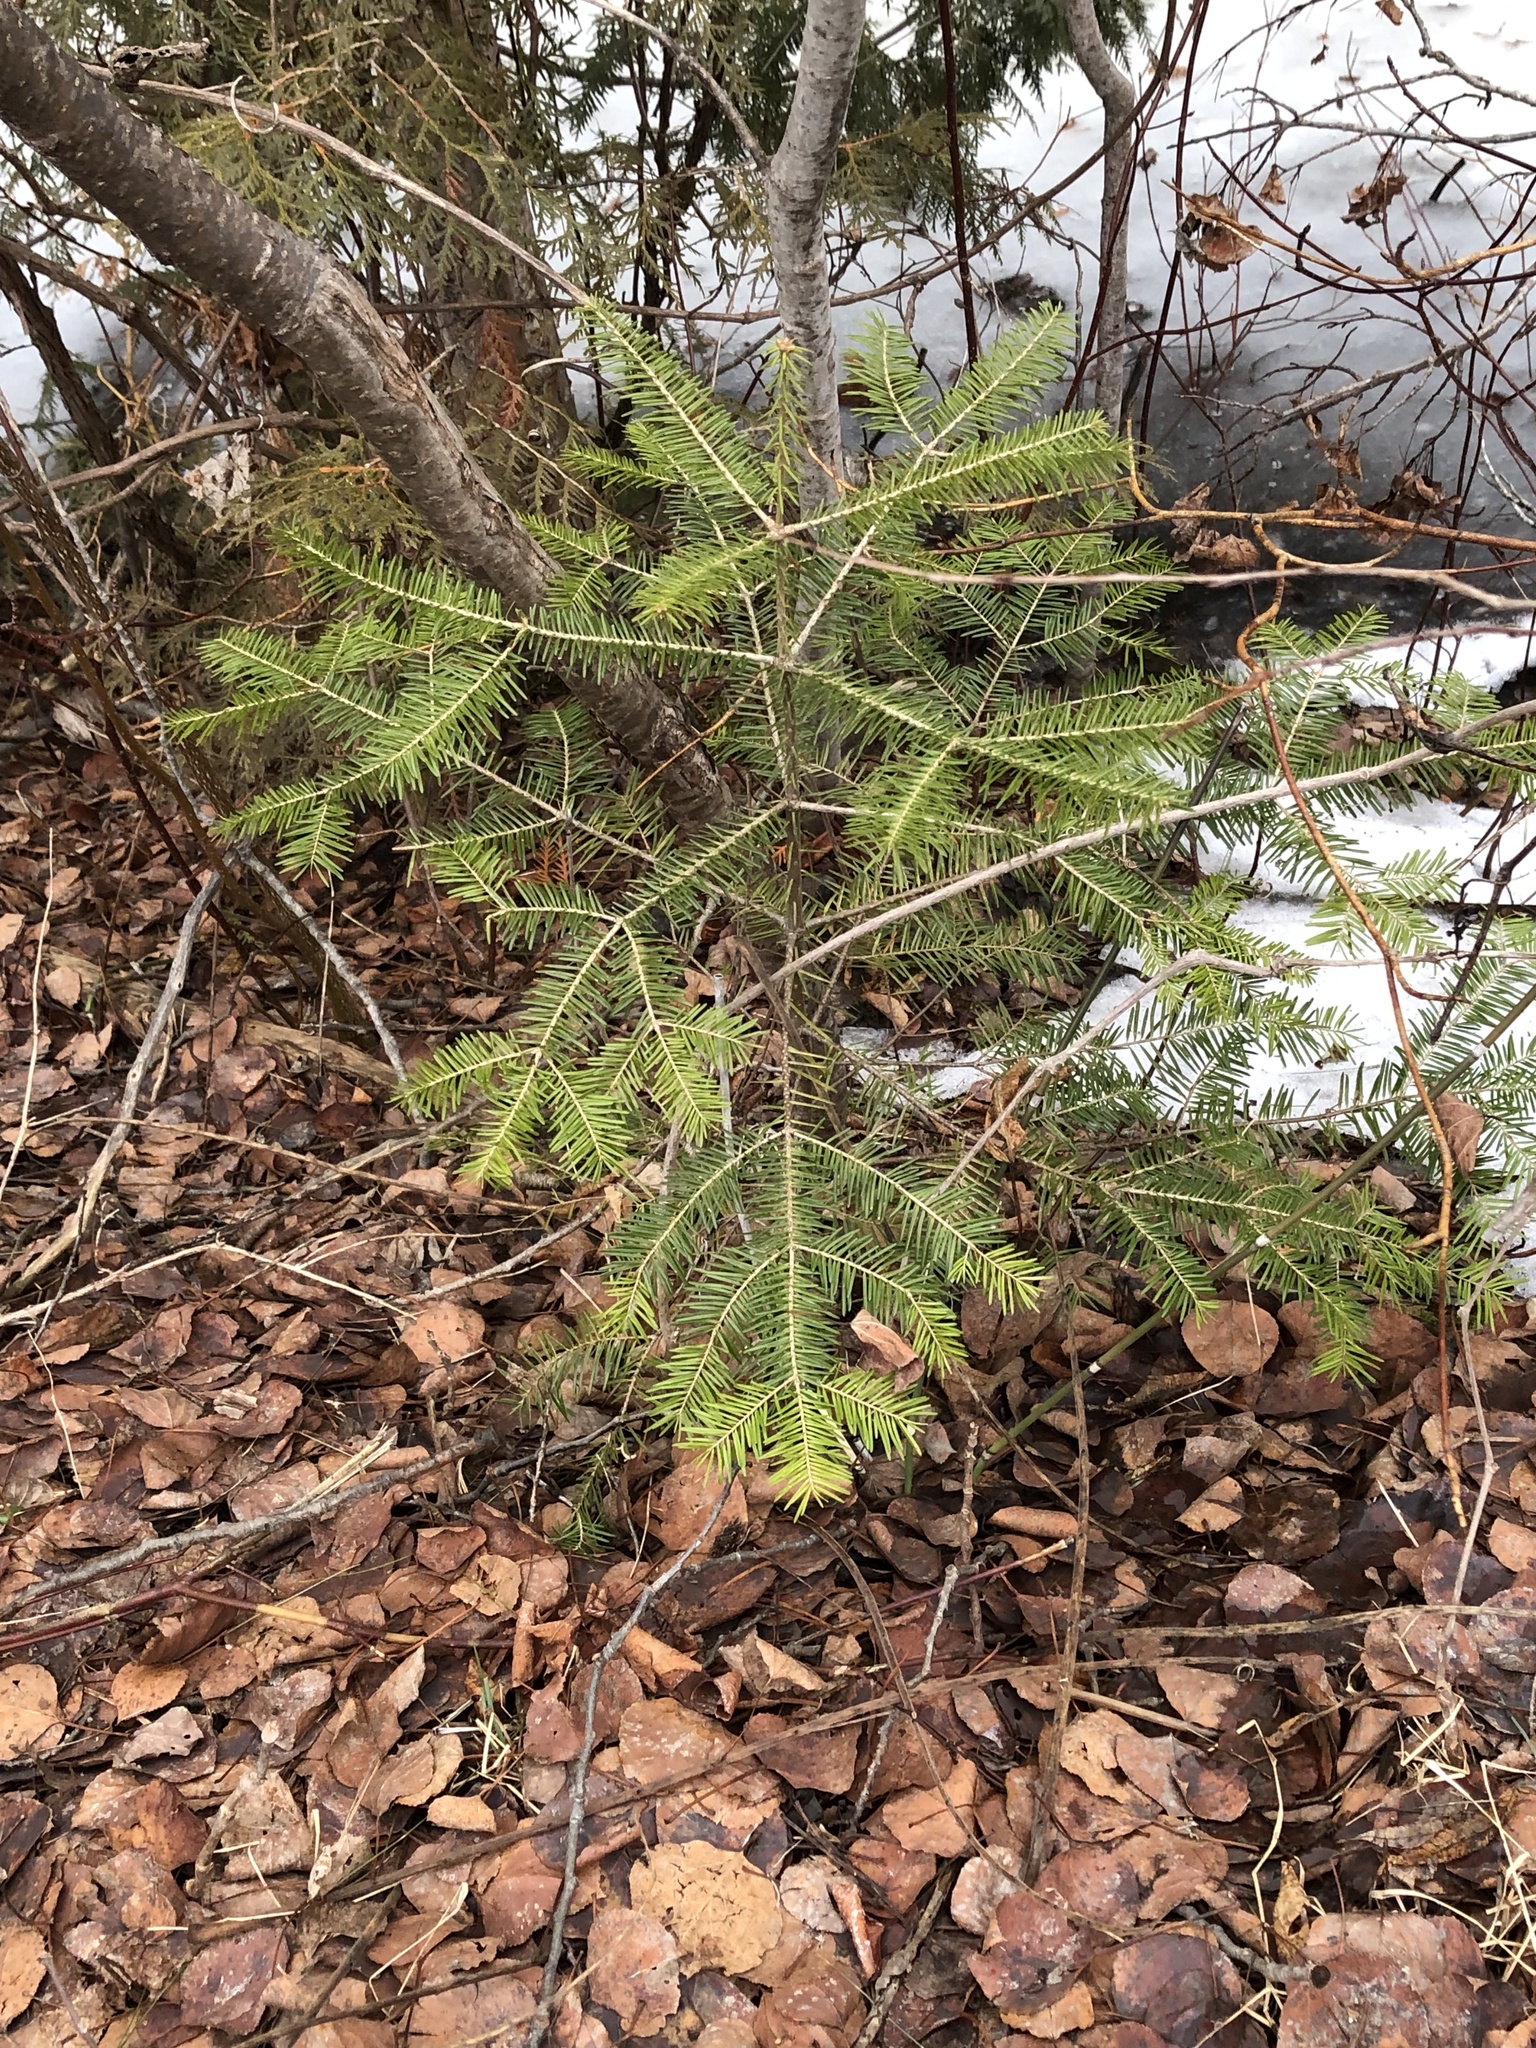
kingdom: Plantae
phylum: Tracheophyta
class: Pinopsida
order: Pinales
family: Pinaceae
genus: Abies
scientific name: Abies balsamea
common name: Balsam fir
